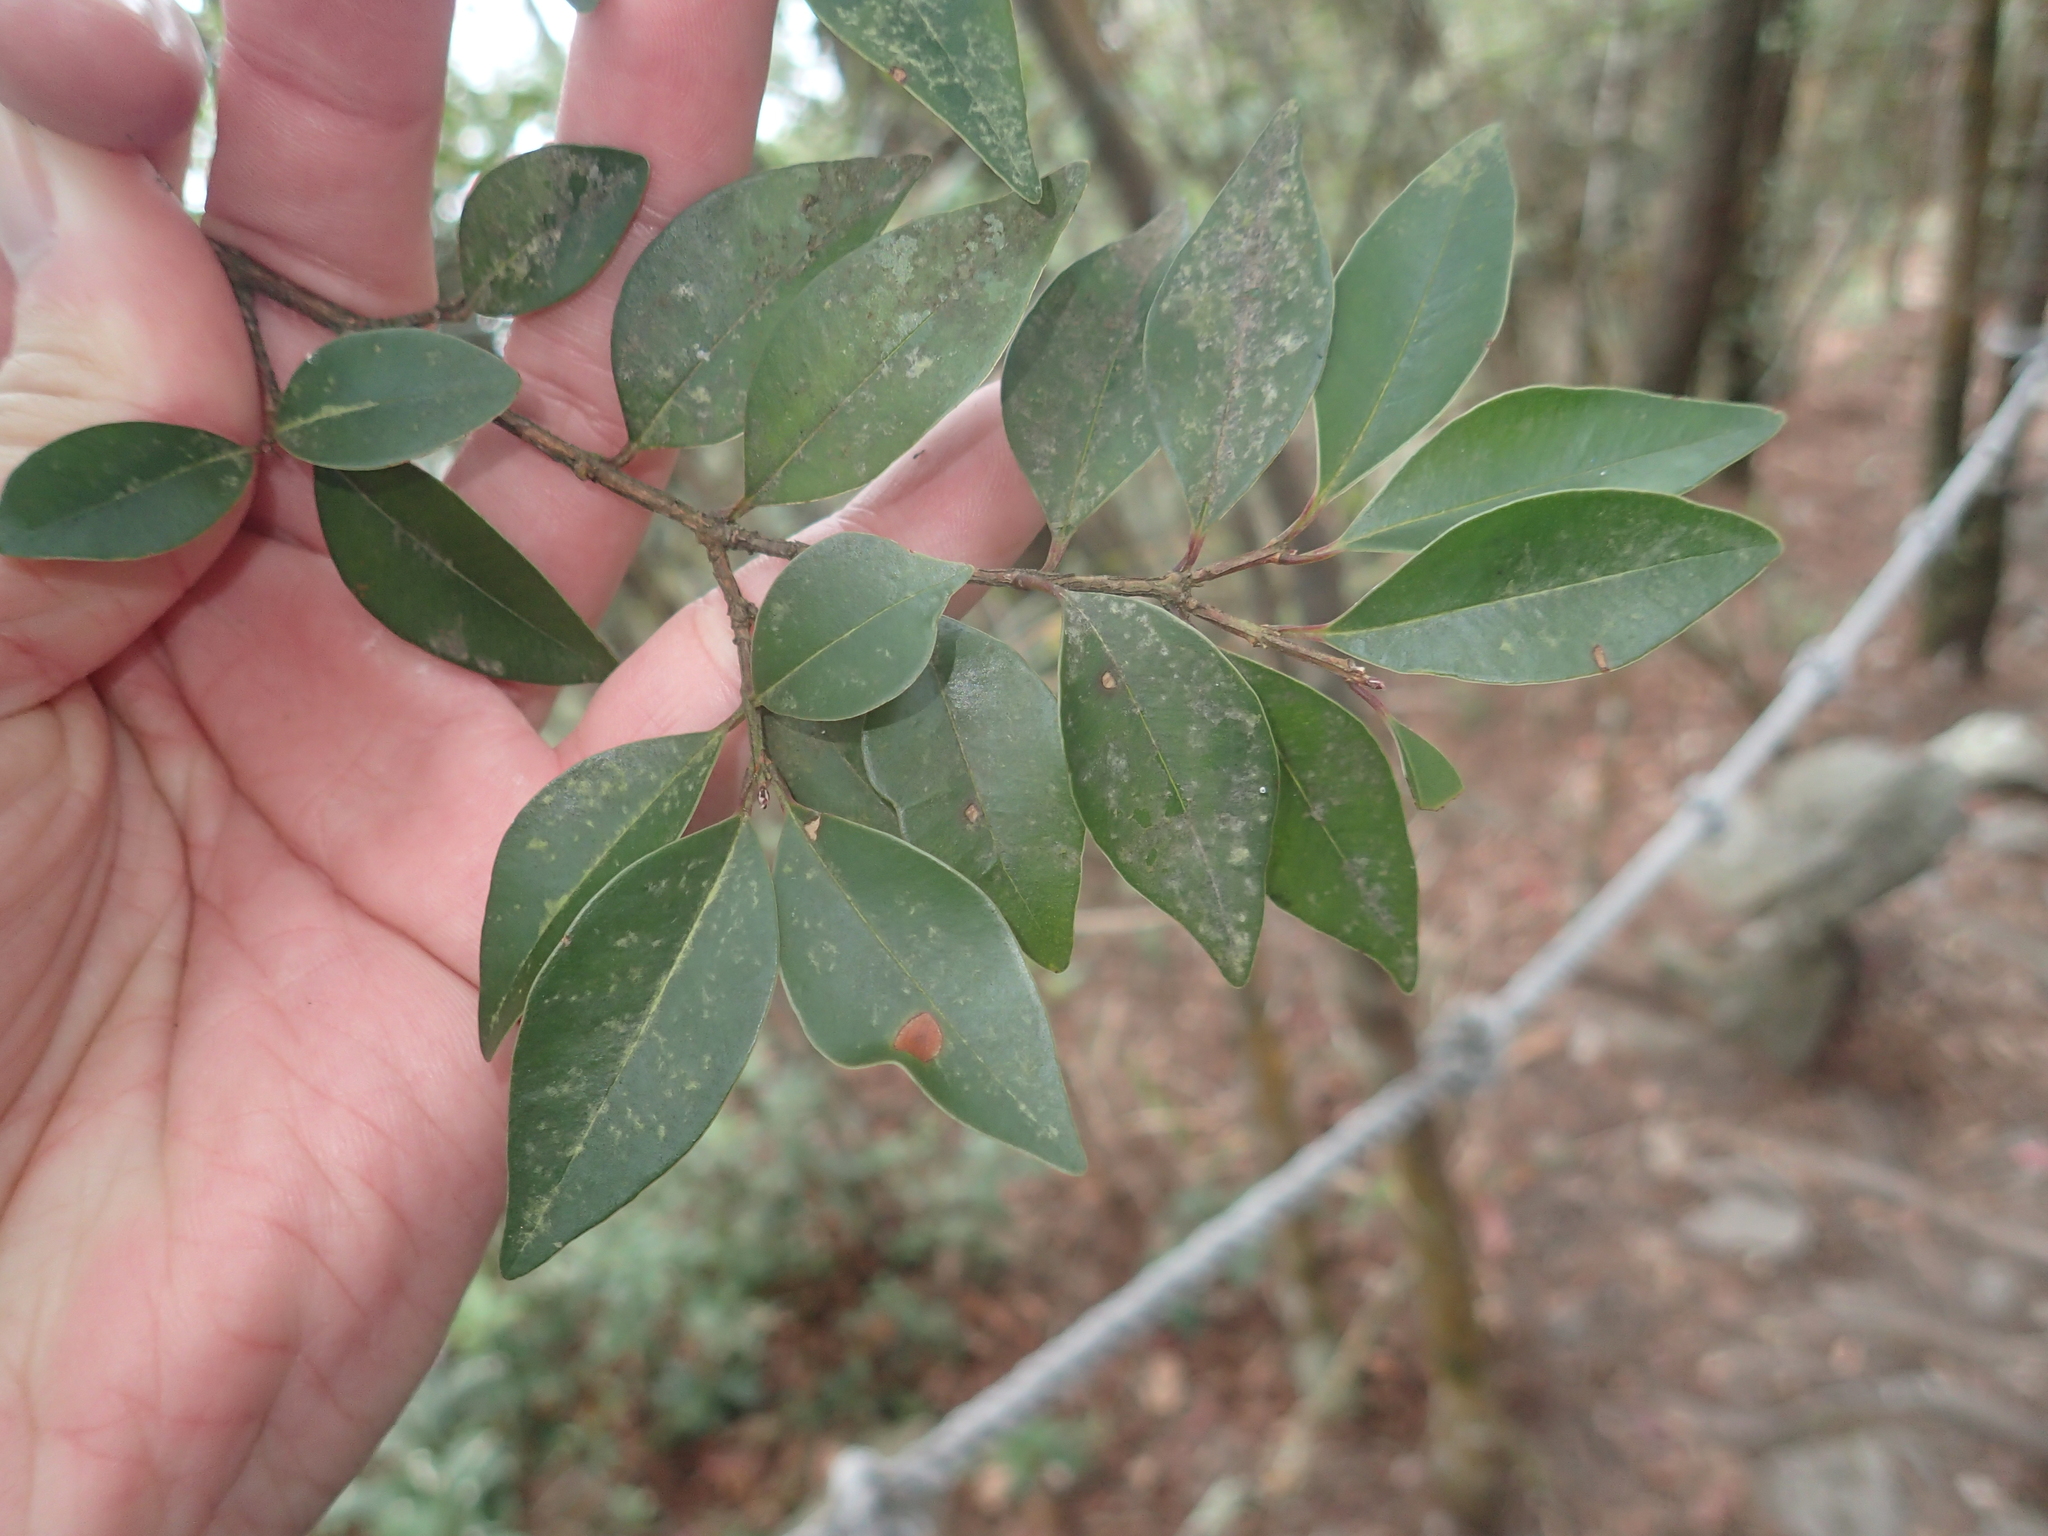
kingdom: Plantae
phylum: Tracheophyta
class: Magnoliopsida
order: Lamiales
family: Oleaceae
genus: Ligustrum
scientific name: Ligustrum liukiuense
